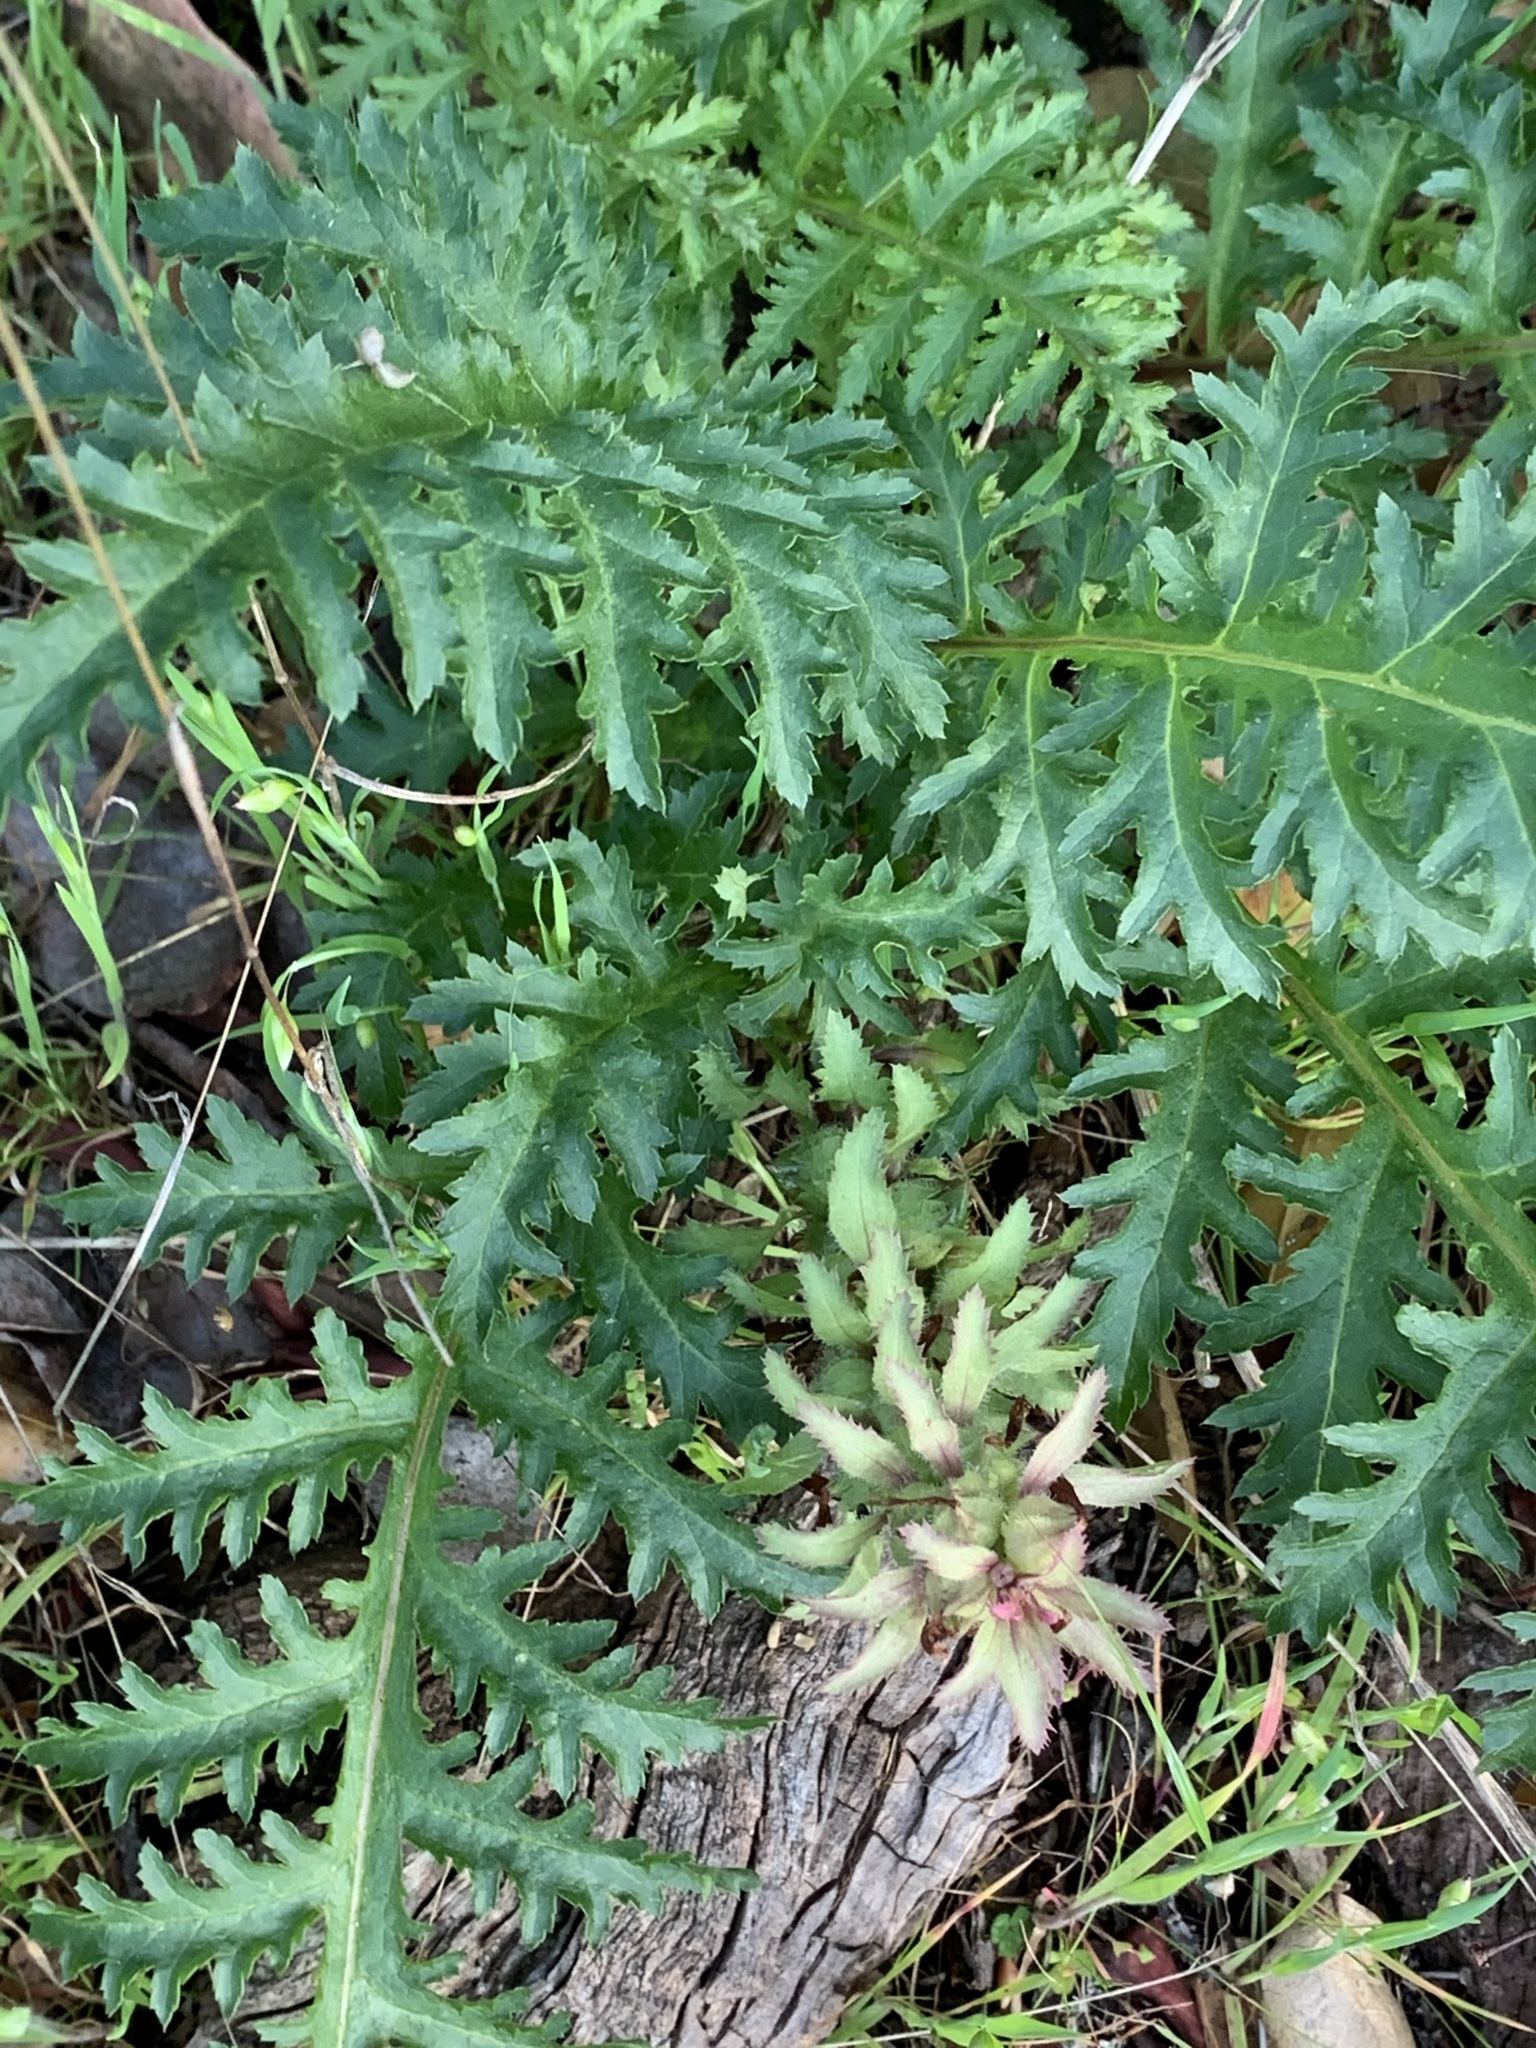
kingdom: Plantae
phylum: Tracheophyta
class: Magnoliopsida
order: Lamiales
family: Orobanchaceae
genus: Pedicularis
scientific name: Pedicularis densiflora
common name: Indian warrior
